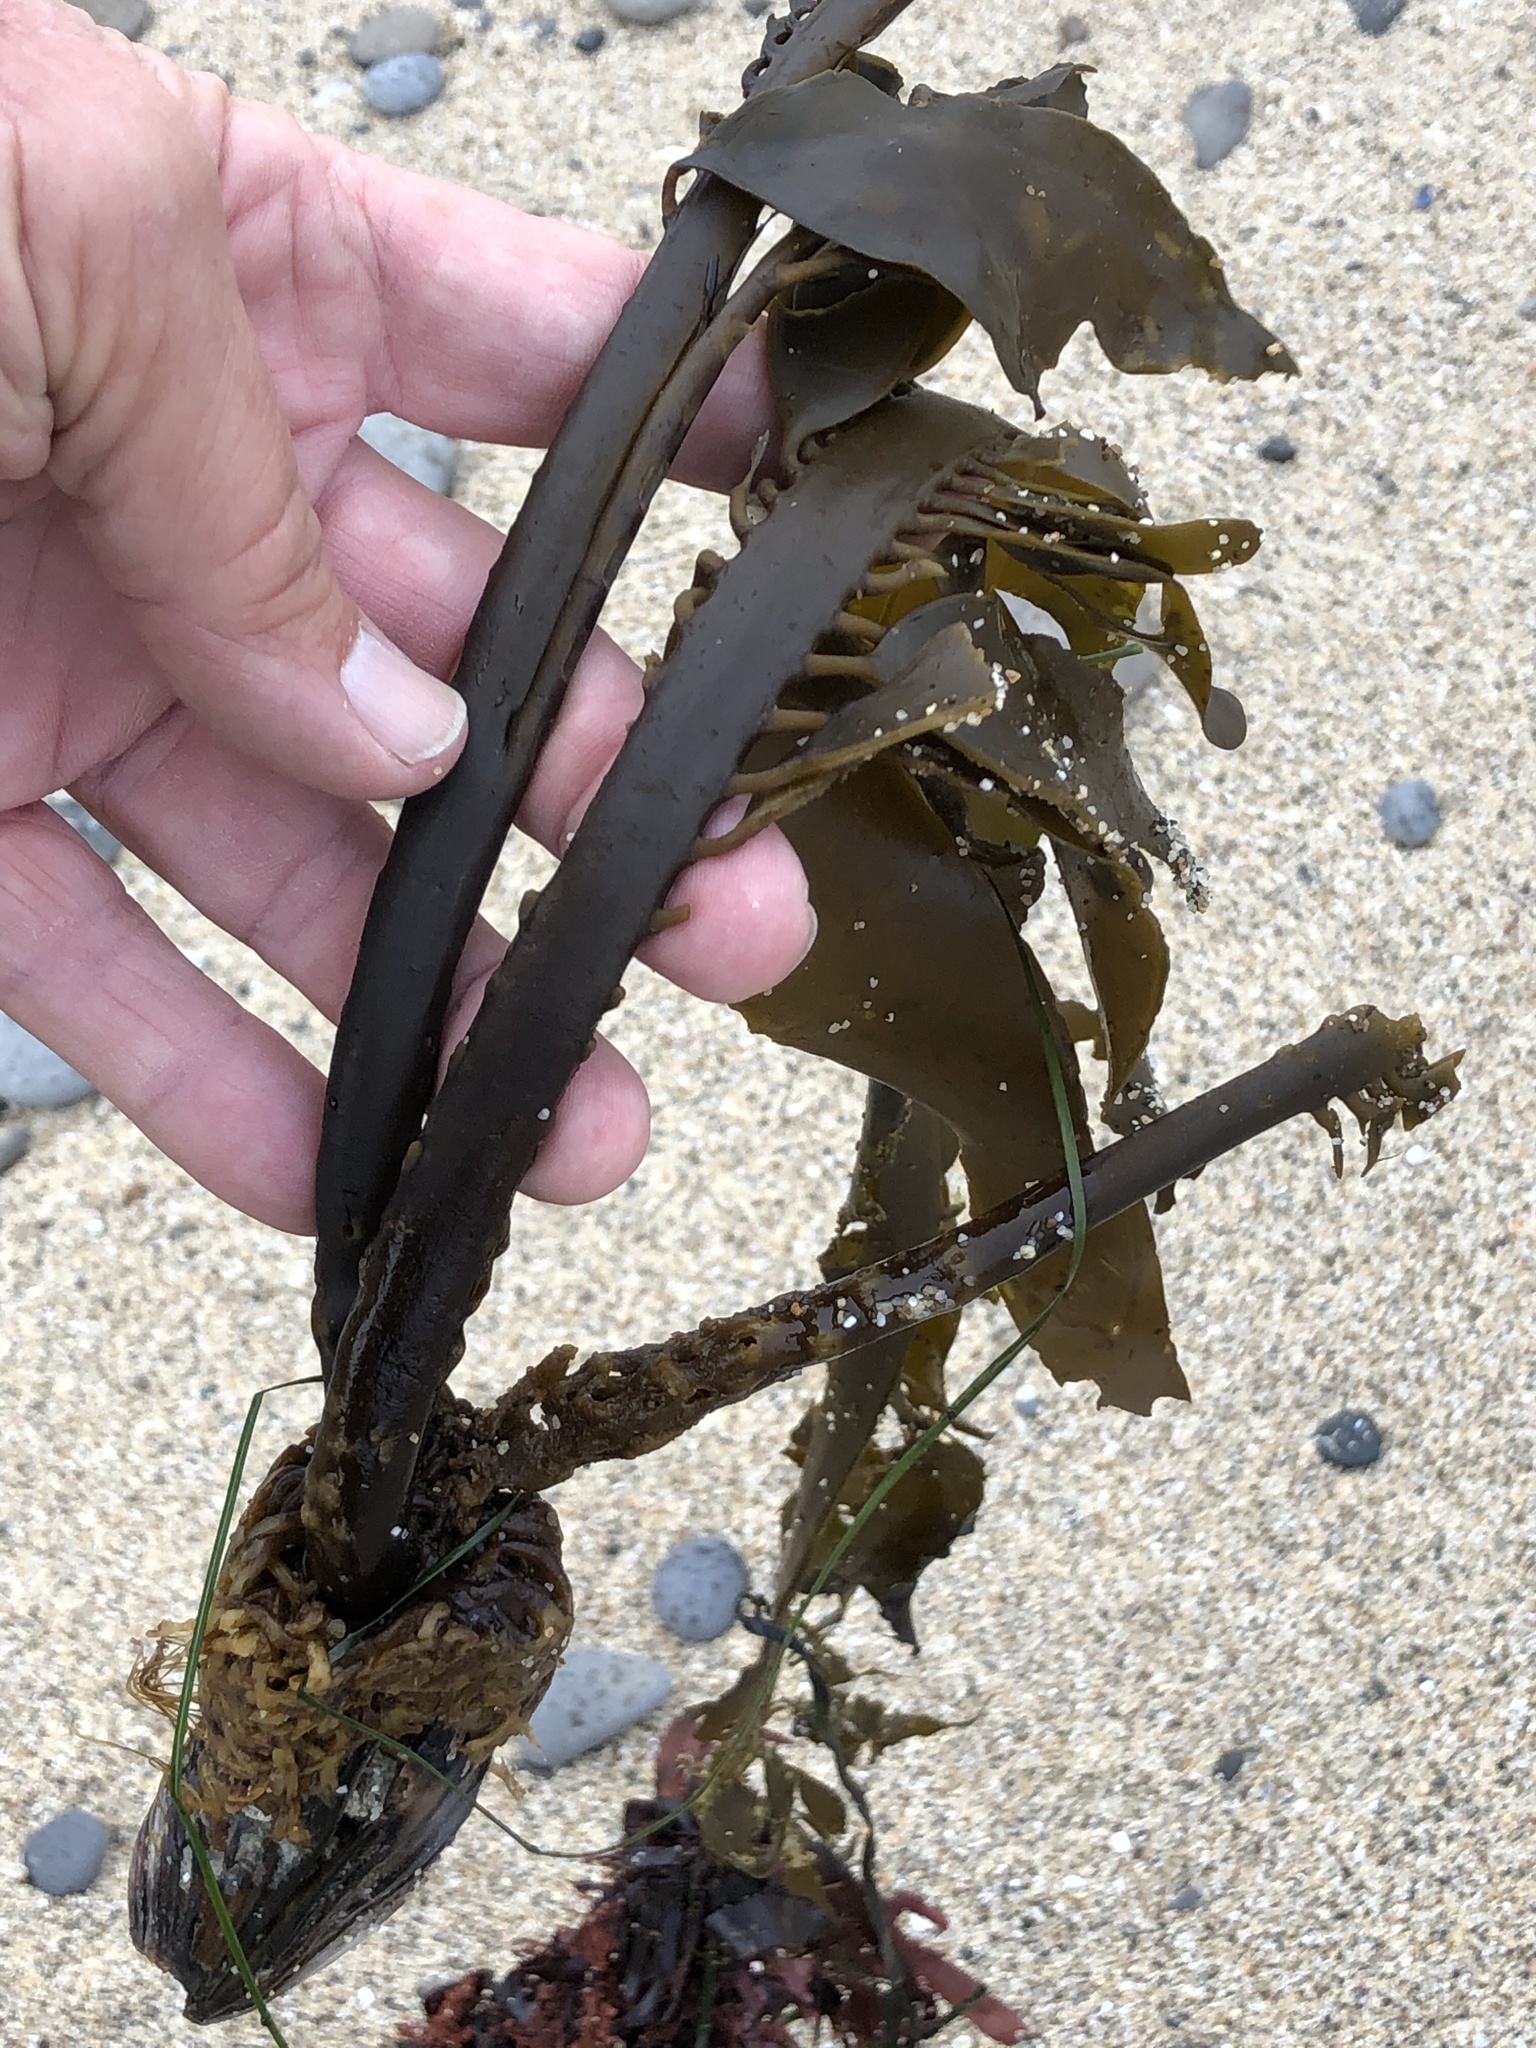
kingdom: Chromista
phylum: Ochrophyta
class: Phaeophyceae
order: Laminariales
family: Alariaceae
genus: Alaria
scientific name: Alaria marginata
